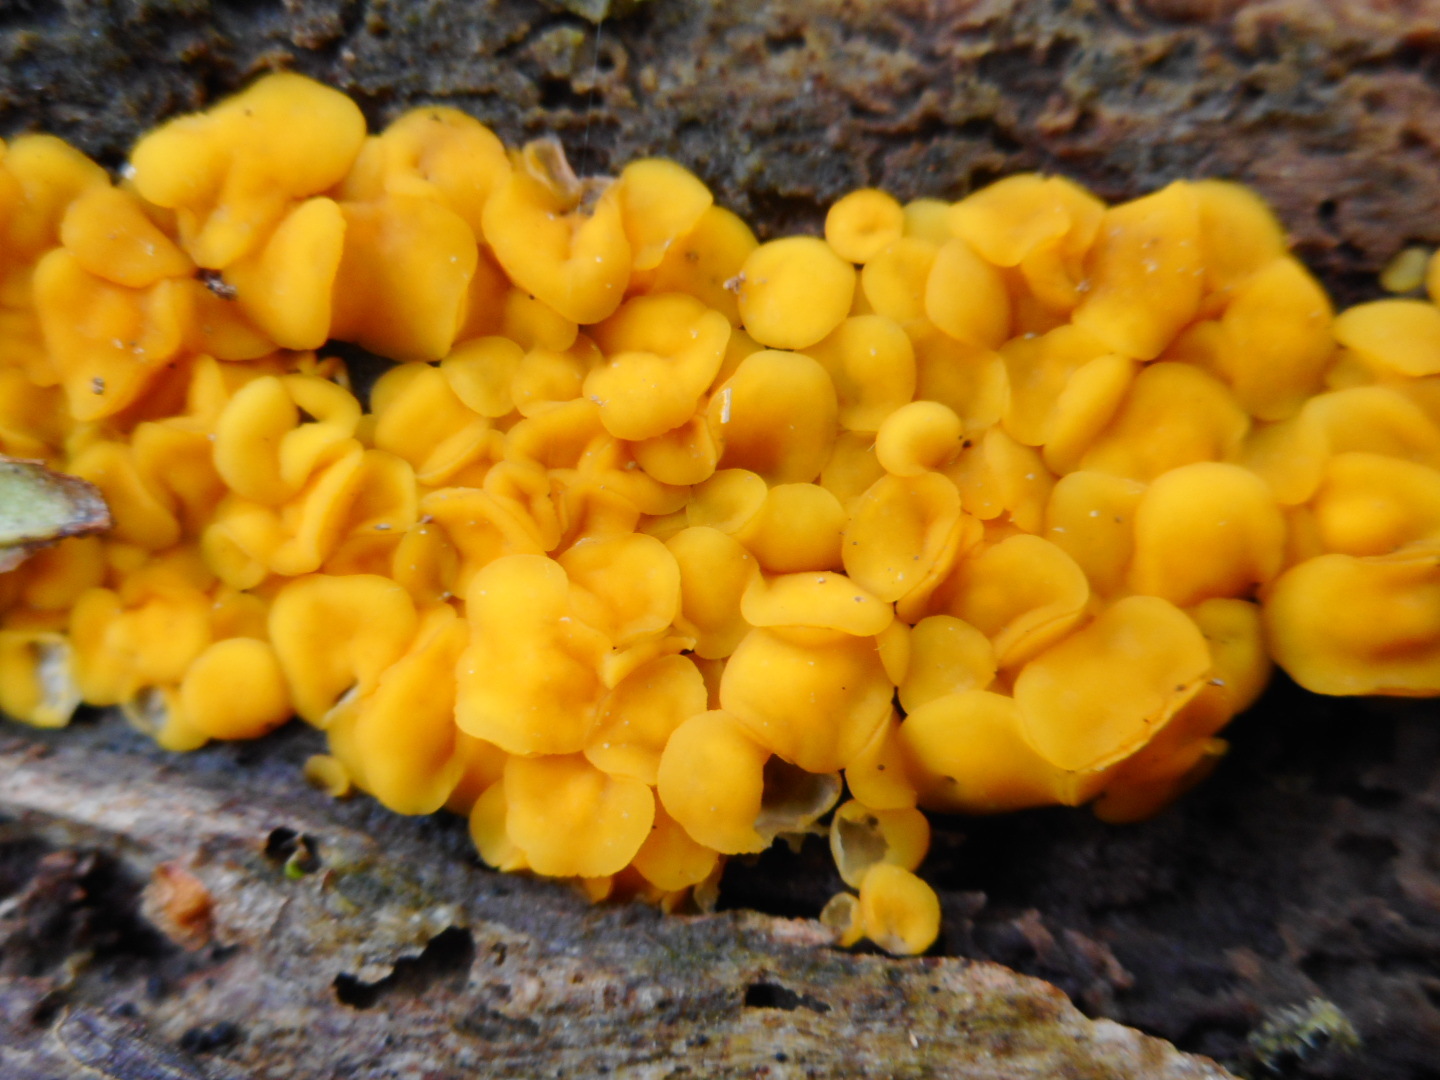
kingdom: Fungi
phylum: Ascomycota
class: Leotiomycetes
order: Helotiales
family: Pezizellaceae
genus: Calycina
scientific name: Calycina citrina
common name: Yellow fairy cups
